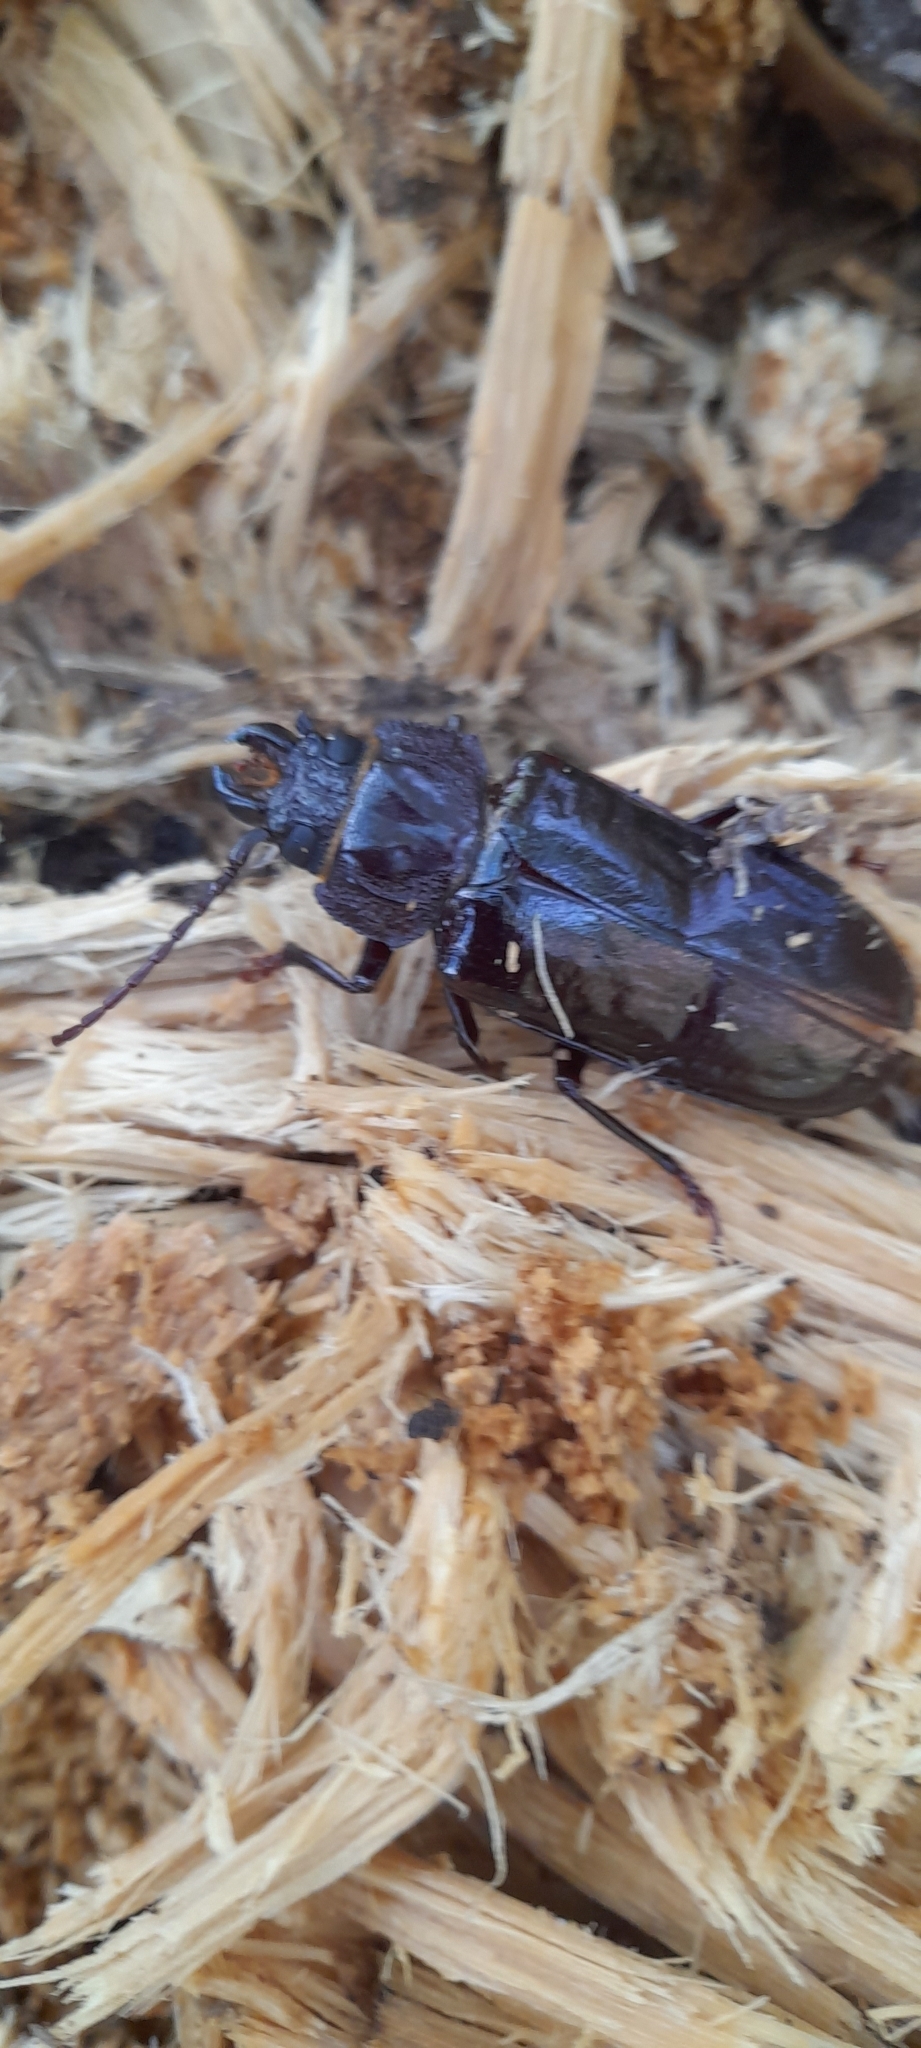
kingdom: Animalia
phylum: Arthropoda
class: Insecta
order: Coleoptera
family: Cerambycidae
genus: Mallodon
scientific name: Mallodon dasystomum
